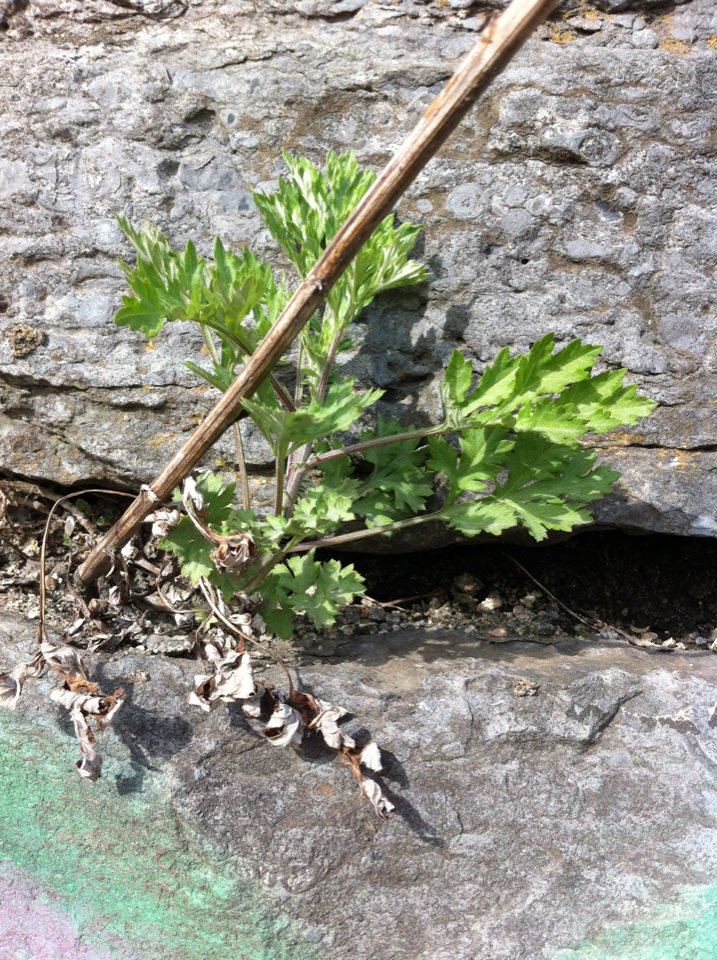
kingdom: Plantae
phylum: Tracheophyta
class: Magnoliopsida
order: Asterales
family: Asteraceae
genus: Artemisia
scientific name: Artemisia vulgaris
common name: Mugwort
